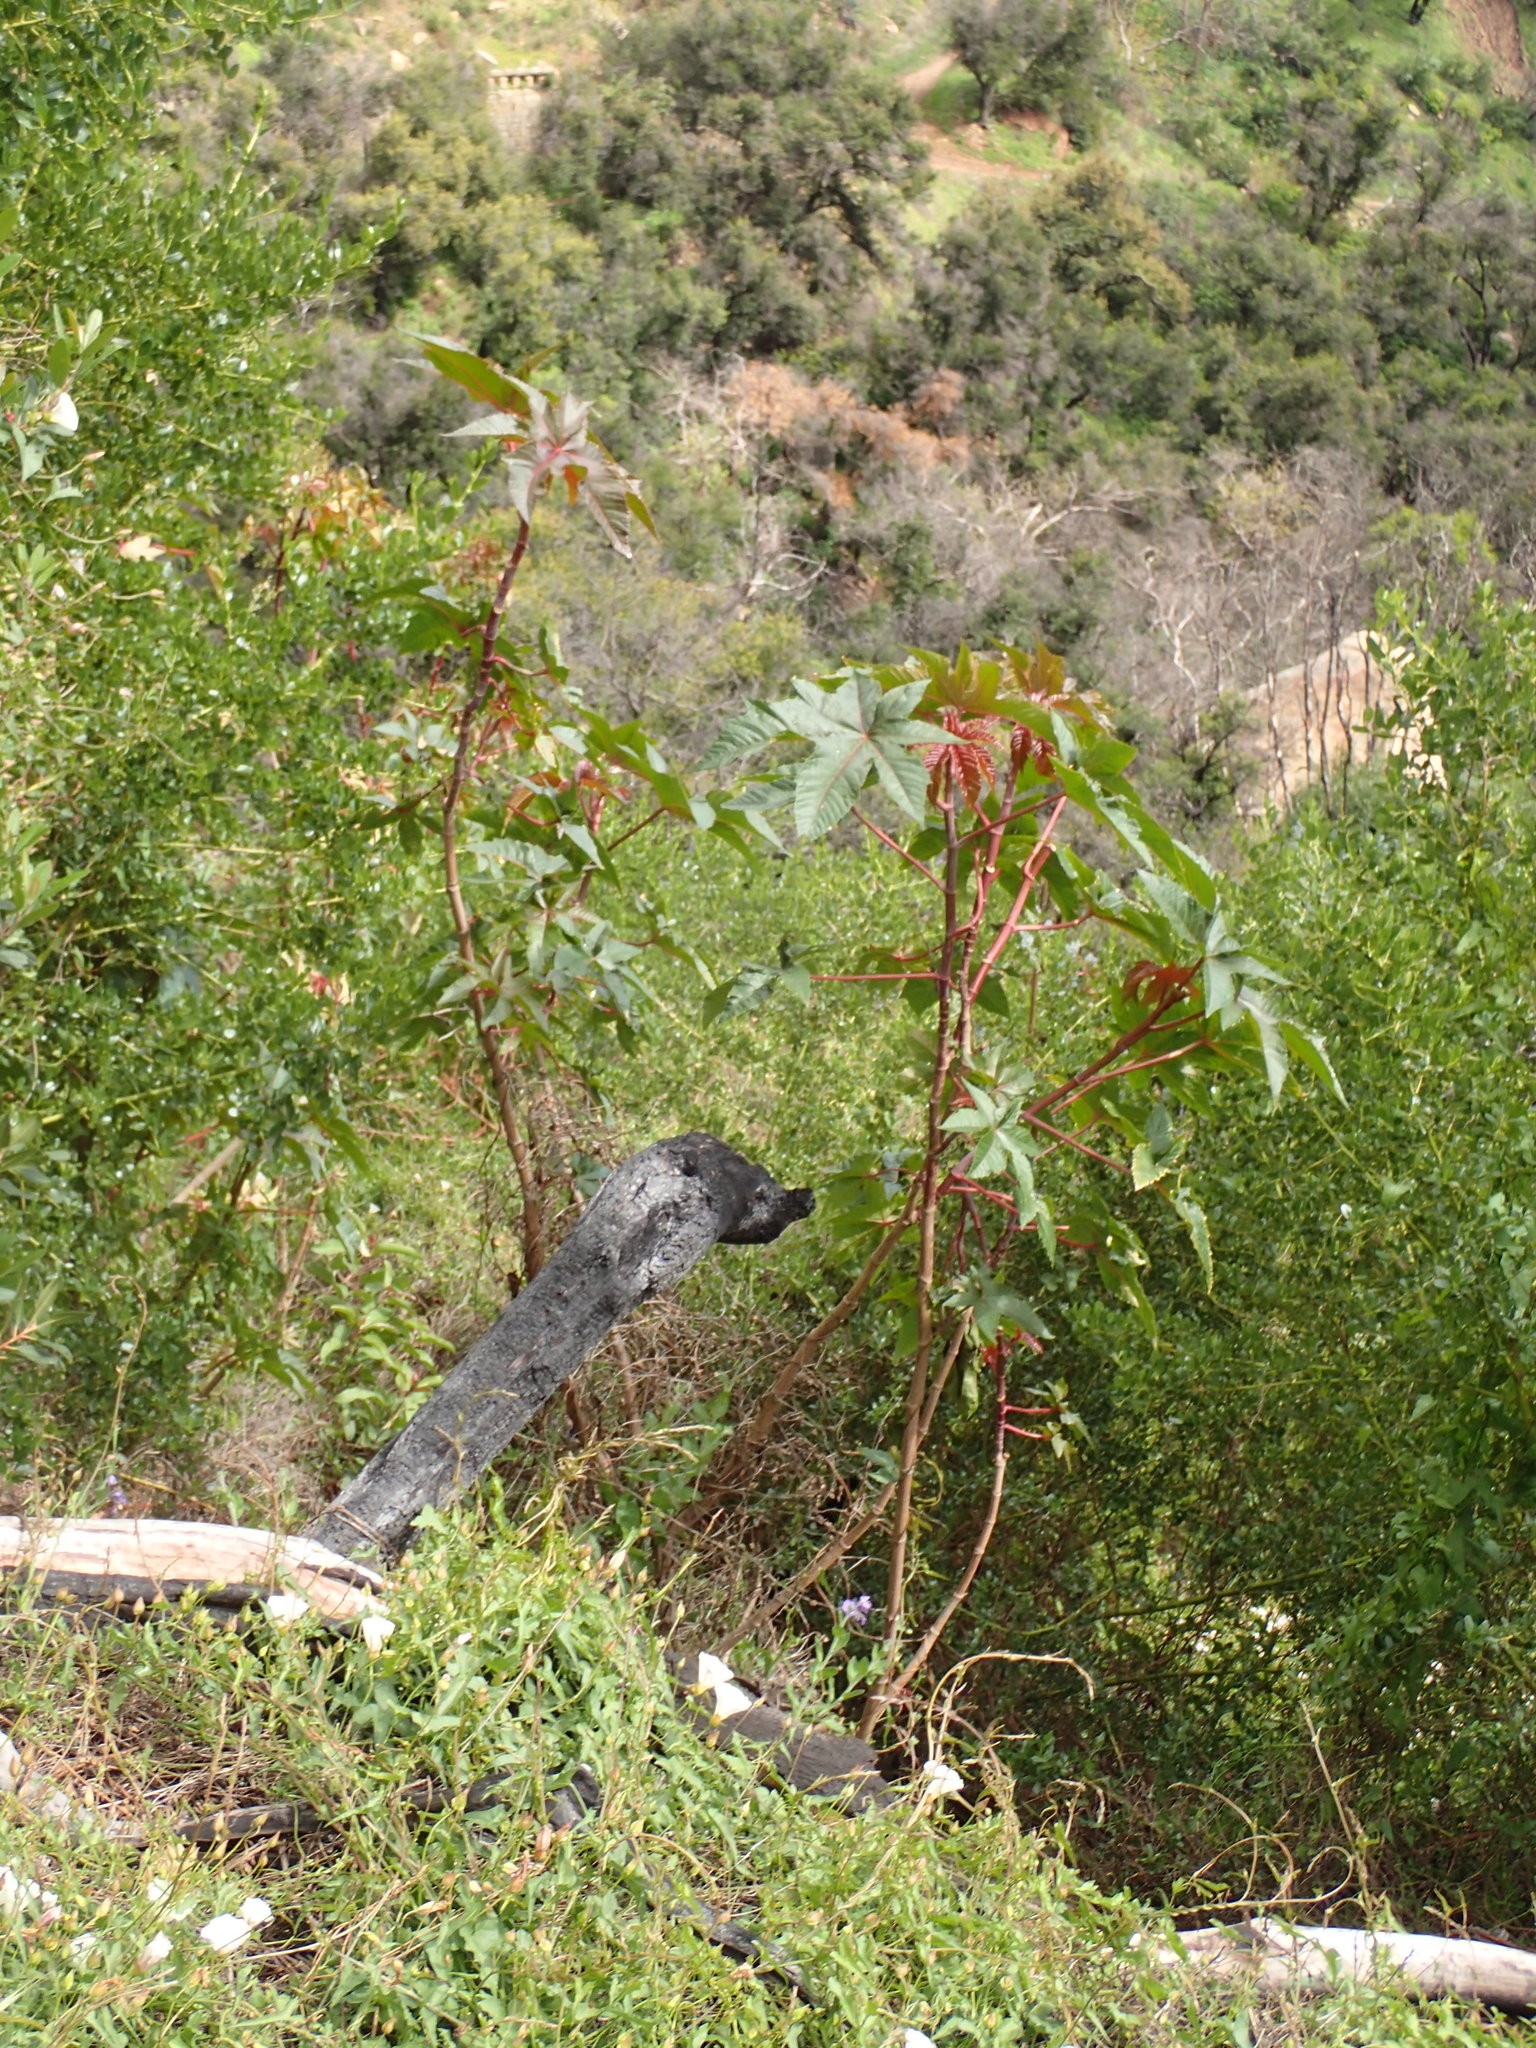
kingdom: Plantae
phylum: Tracheophyta
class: Magnoliopsida
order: Malpighiales
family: Euphorbiaceae
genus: Ricinus
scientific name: Ricinus communis
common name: Castor-oil-plant
